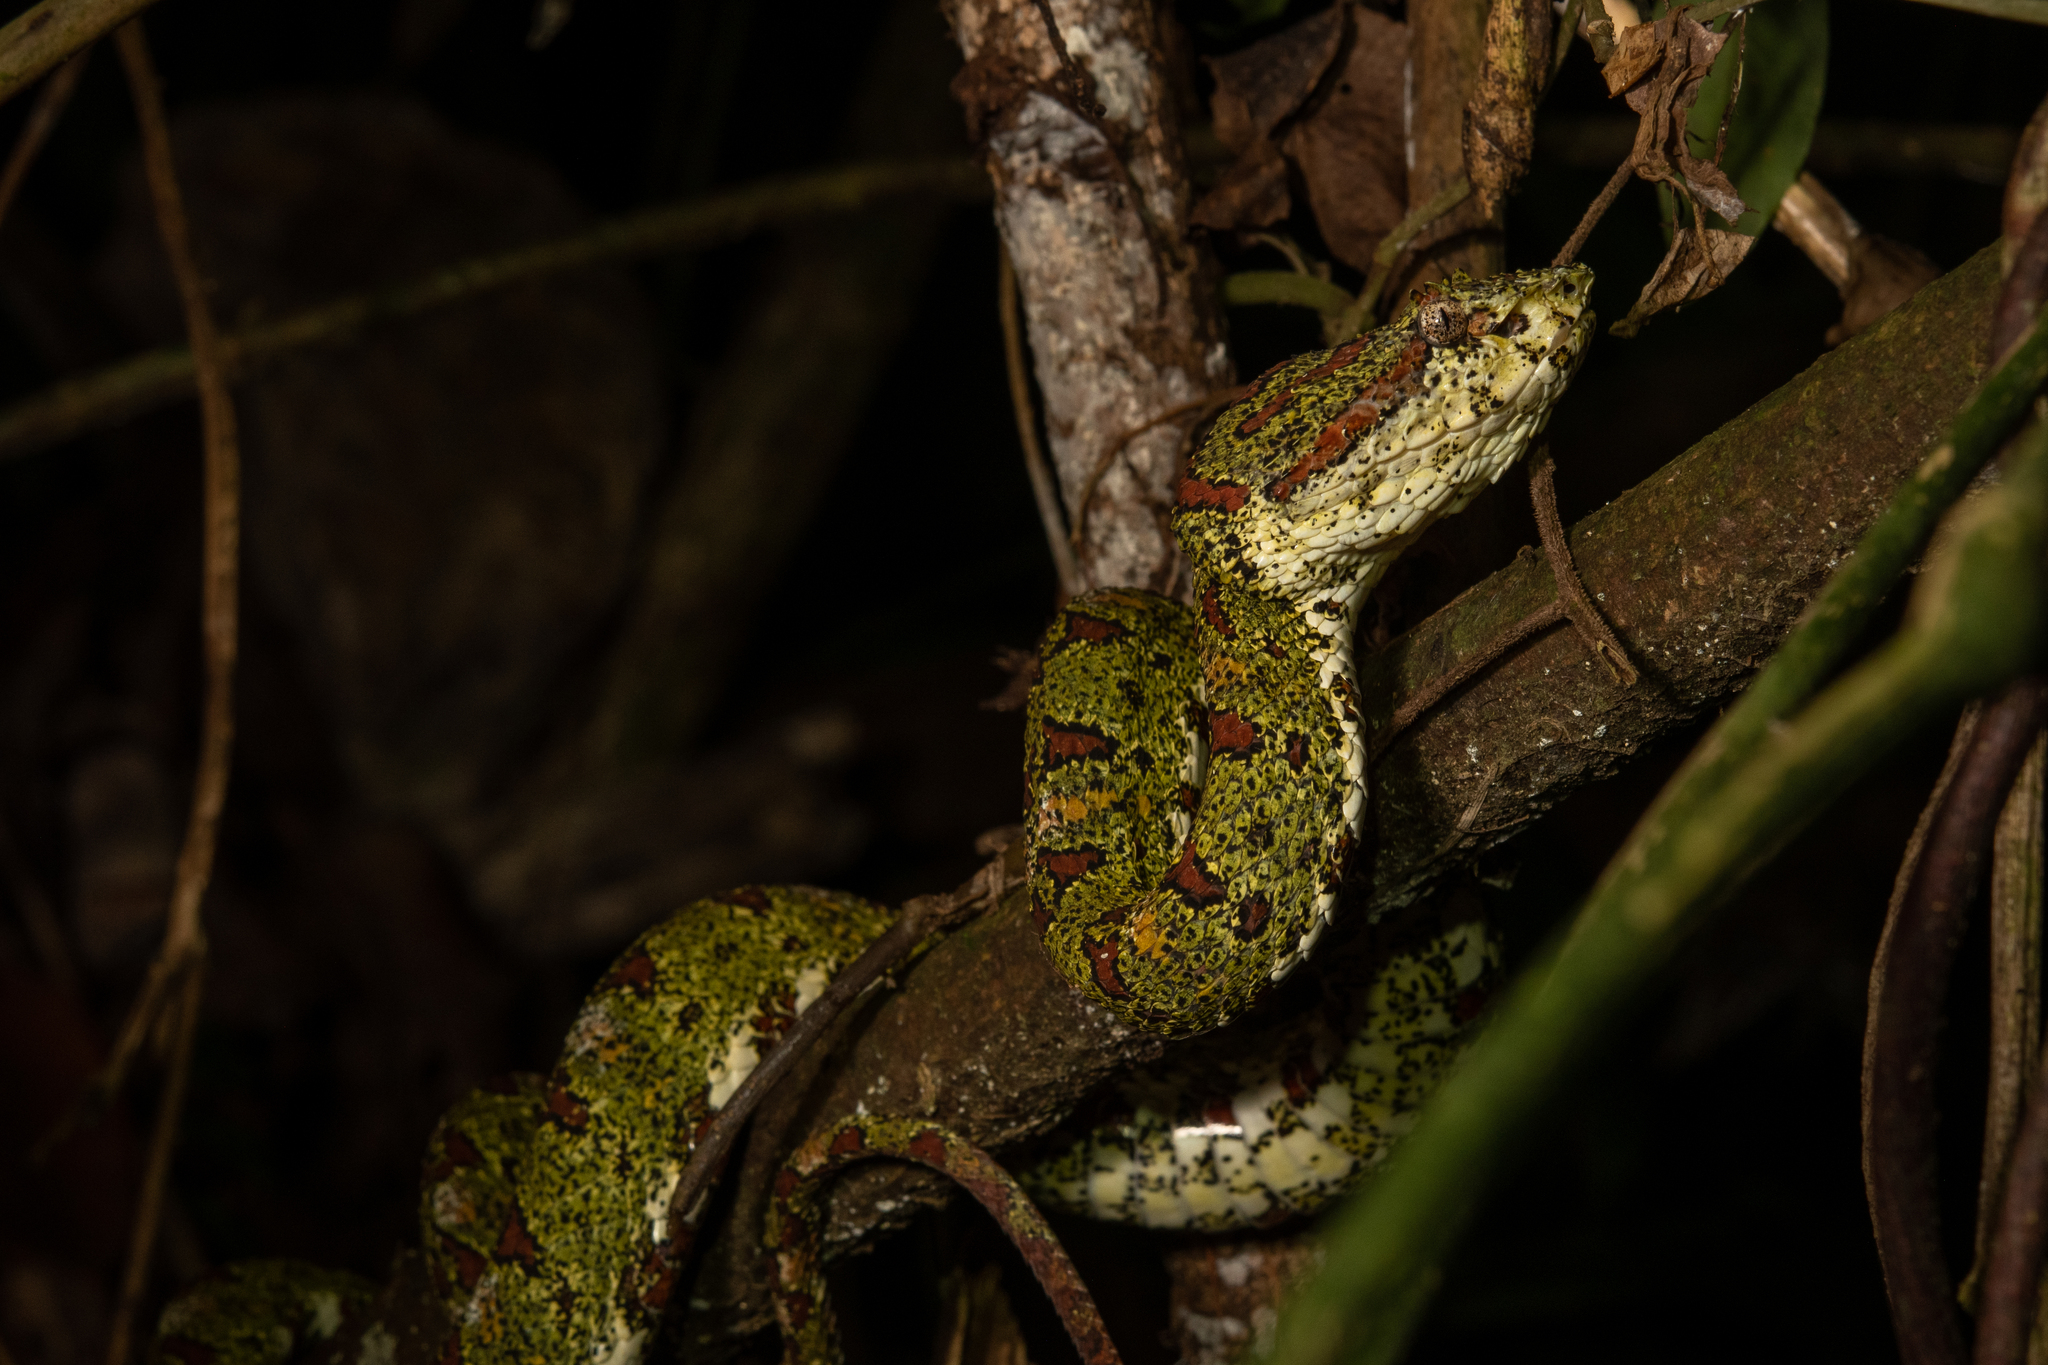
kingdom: Animalia
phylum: Chordata
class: Squamata
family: Viperidae
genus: Bothriechis
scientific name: Bothriechis schlegelii
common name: Eyelash viper
